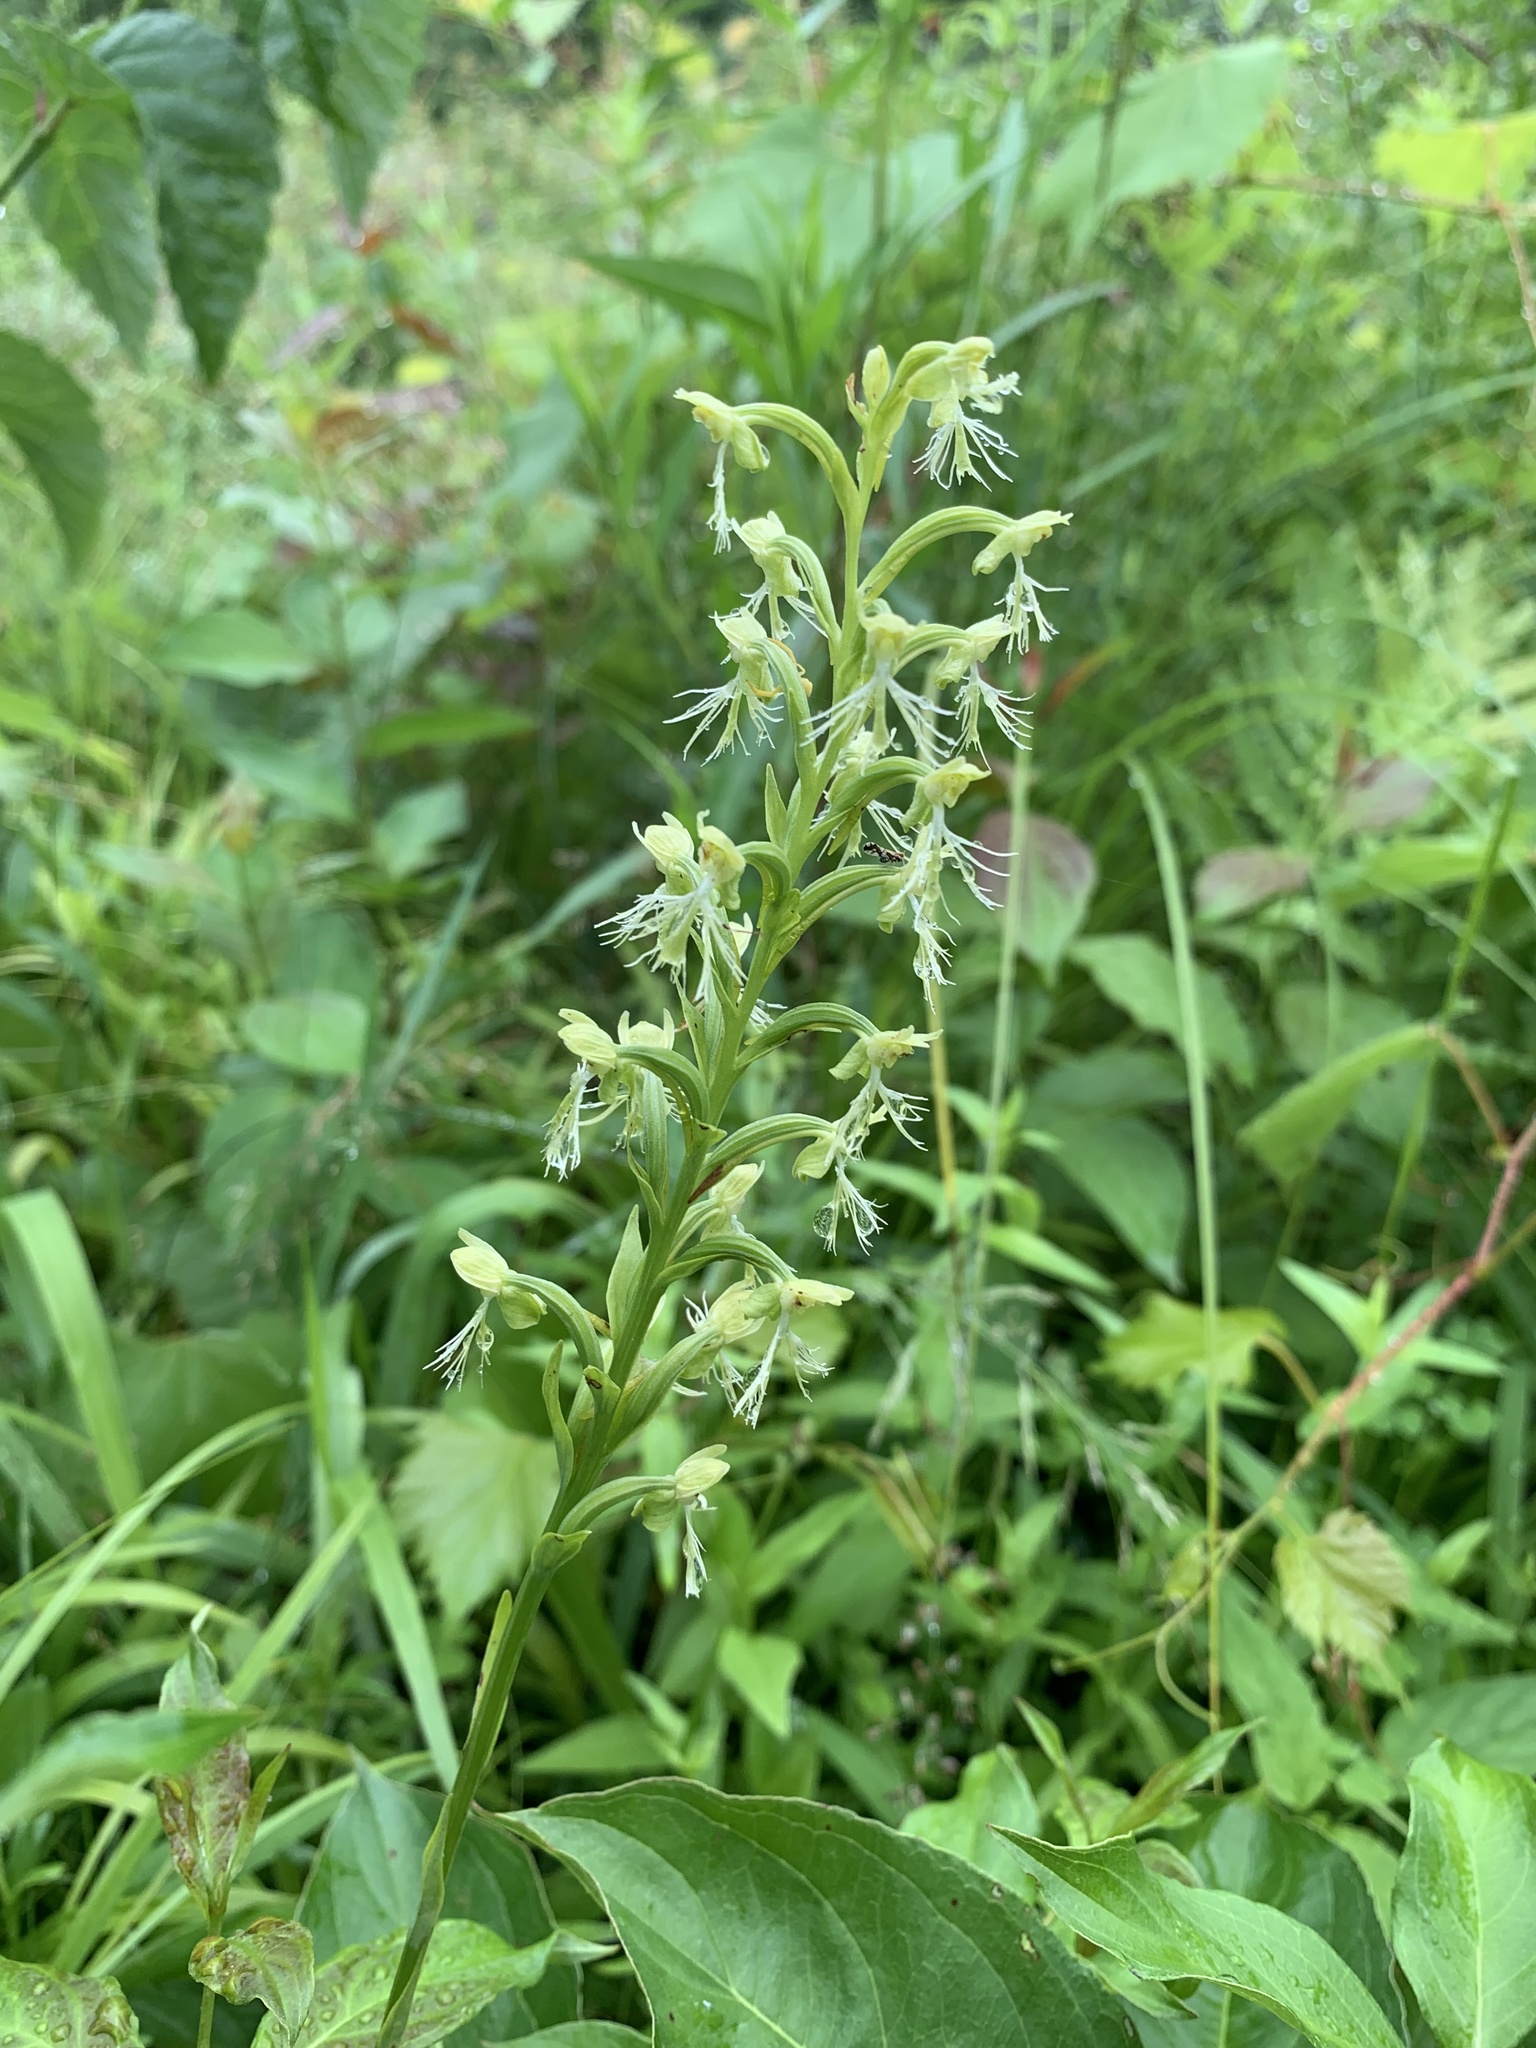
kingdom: Plantae
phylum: Tracheophyta
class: Liliopsida
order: Asparagales
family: Orchidaceae
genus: Platanthera
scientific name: Platanthera lacera
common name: Green fringed orchid
